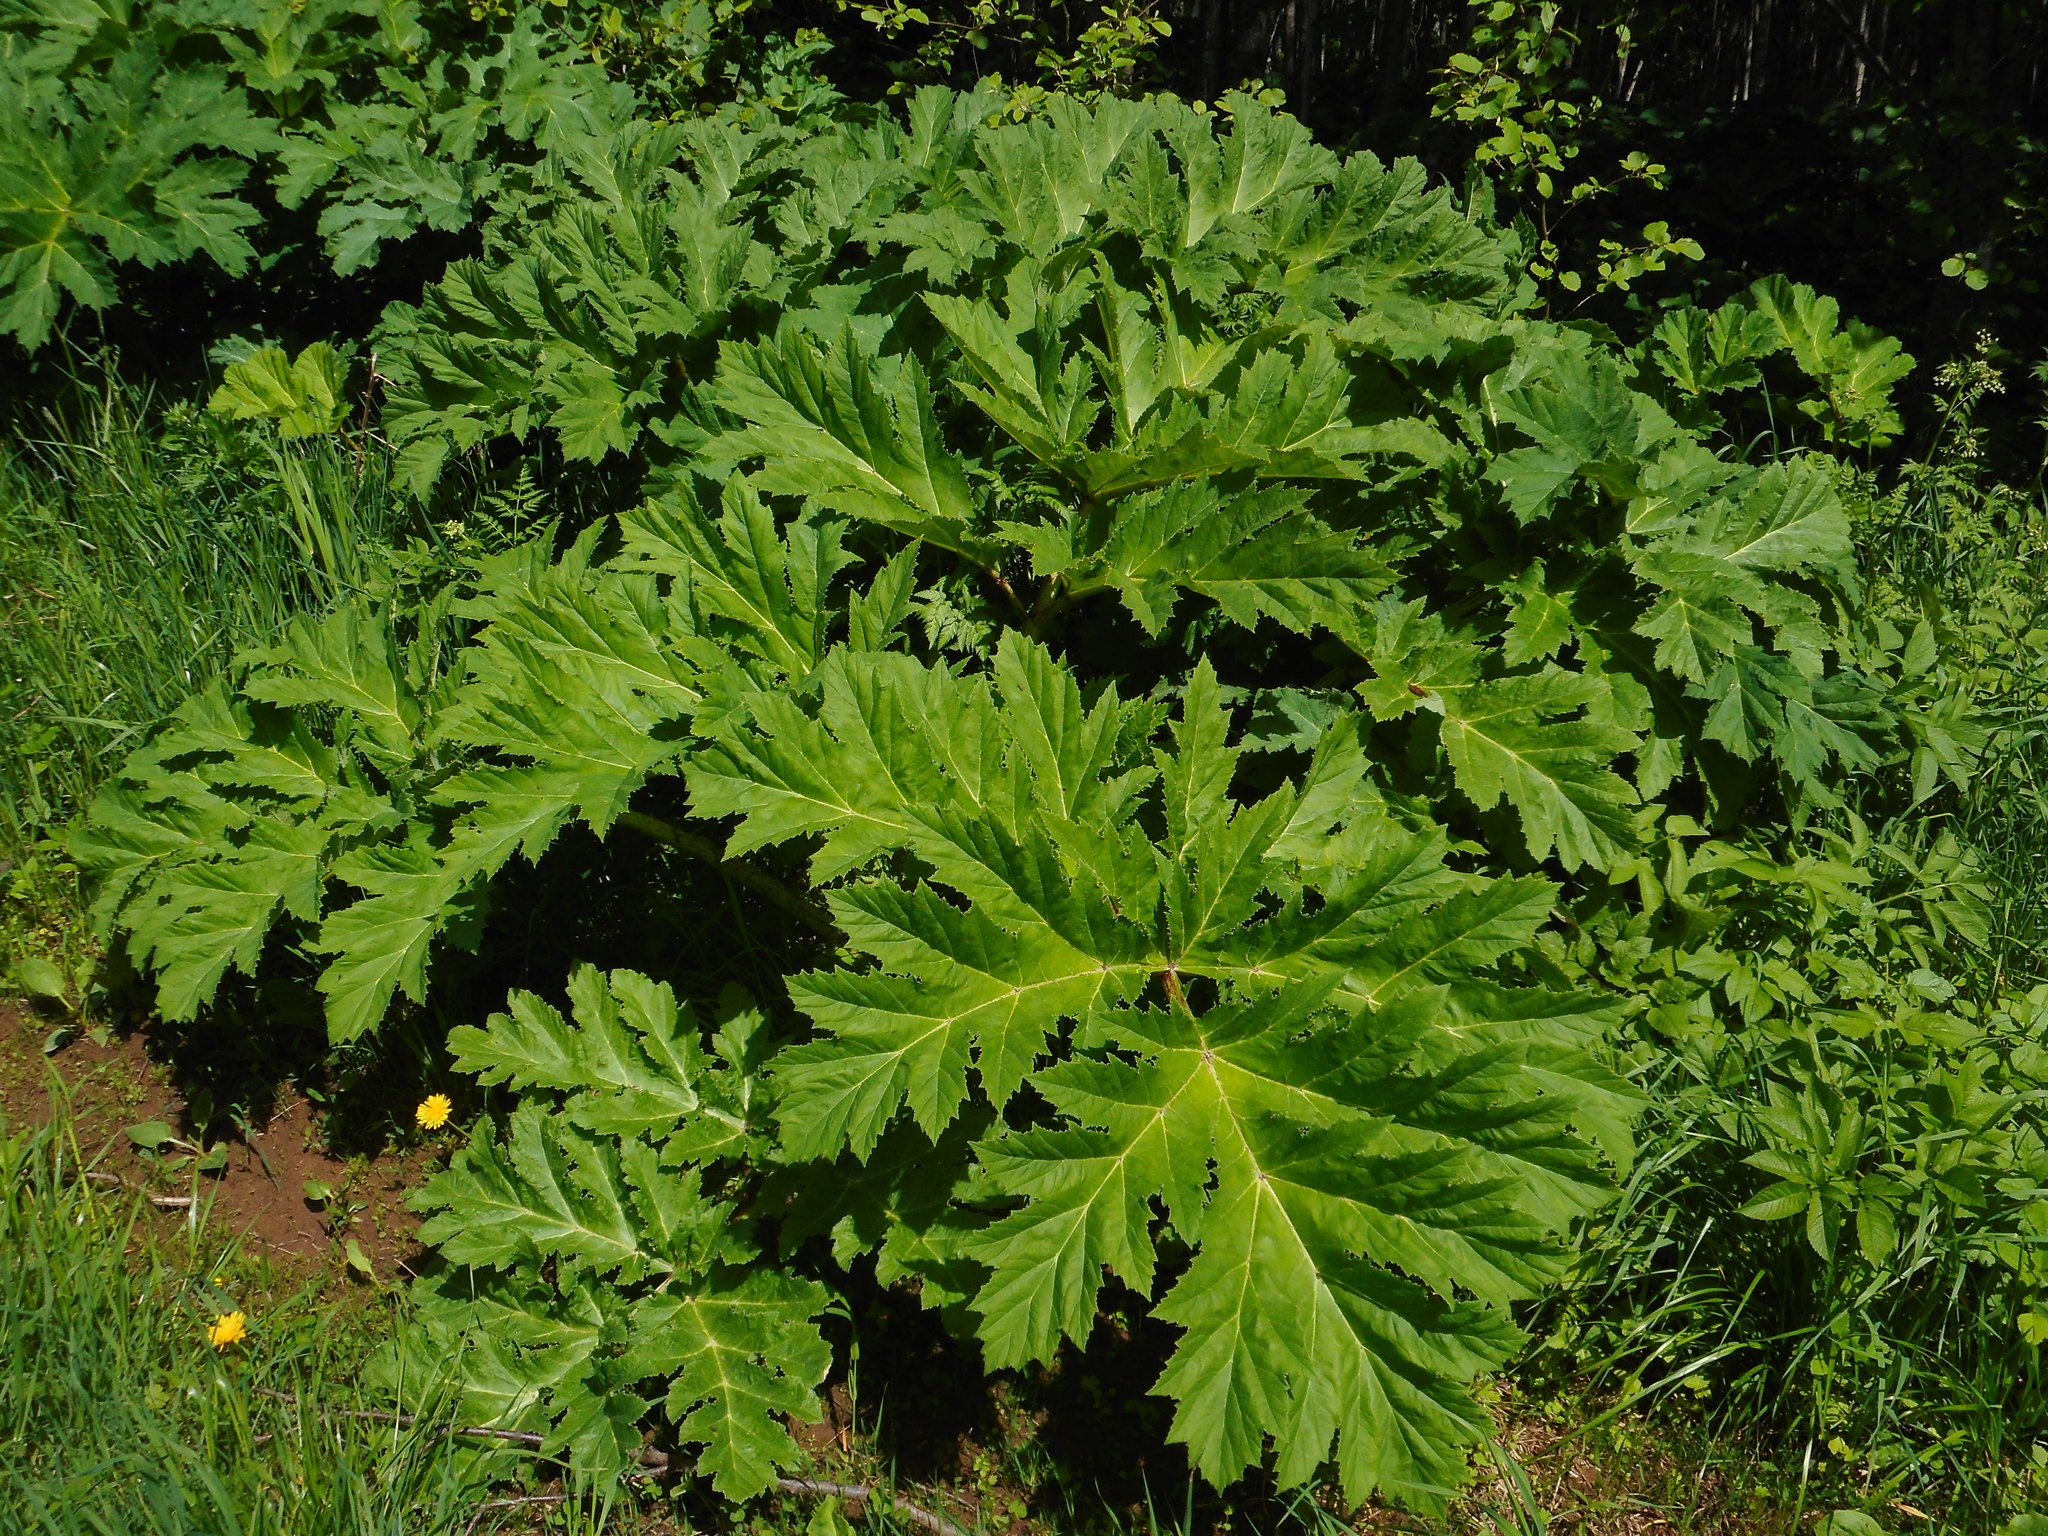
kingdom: Plantae
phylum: Tracheophyta
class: Magnoliopsida
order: Apiales
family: Apiaceae
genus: Heracleum
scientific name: Heracleum sosnowskyi
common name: Sosnowsky's hogweed
